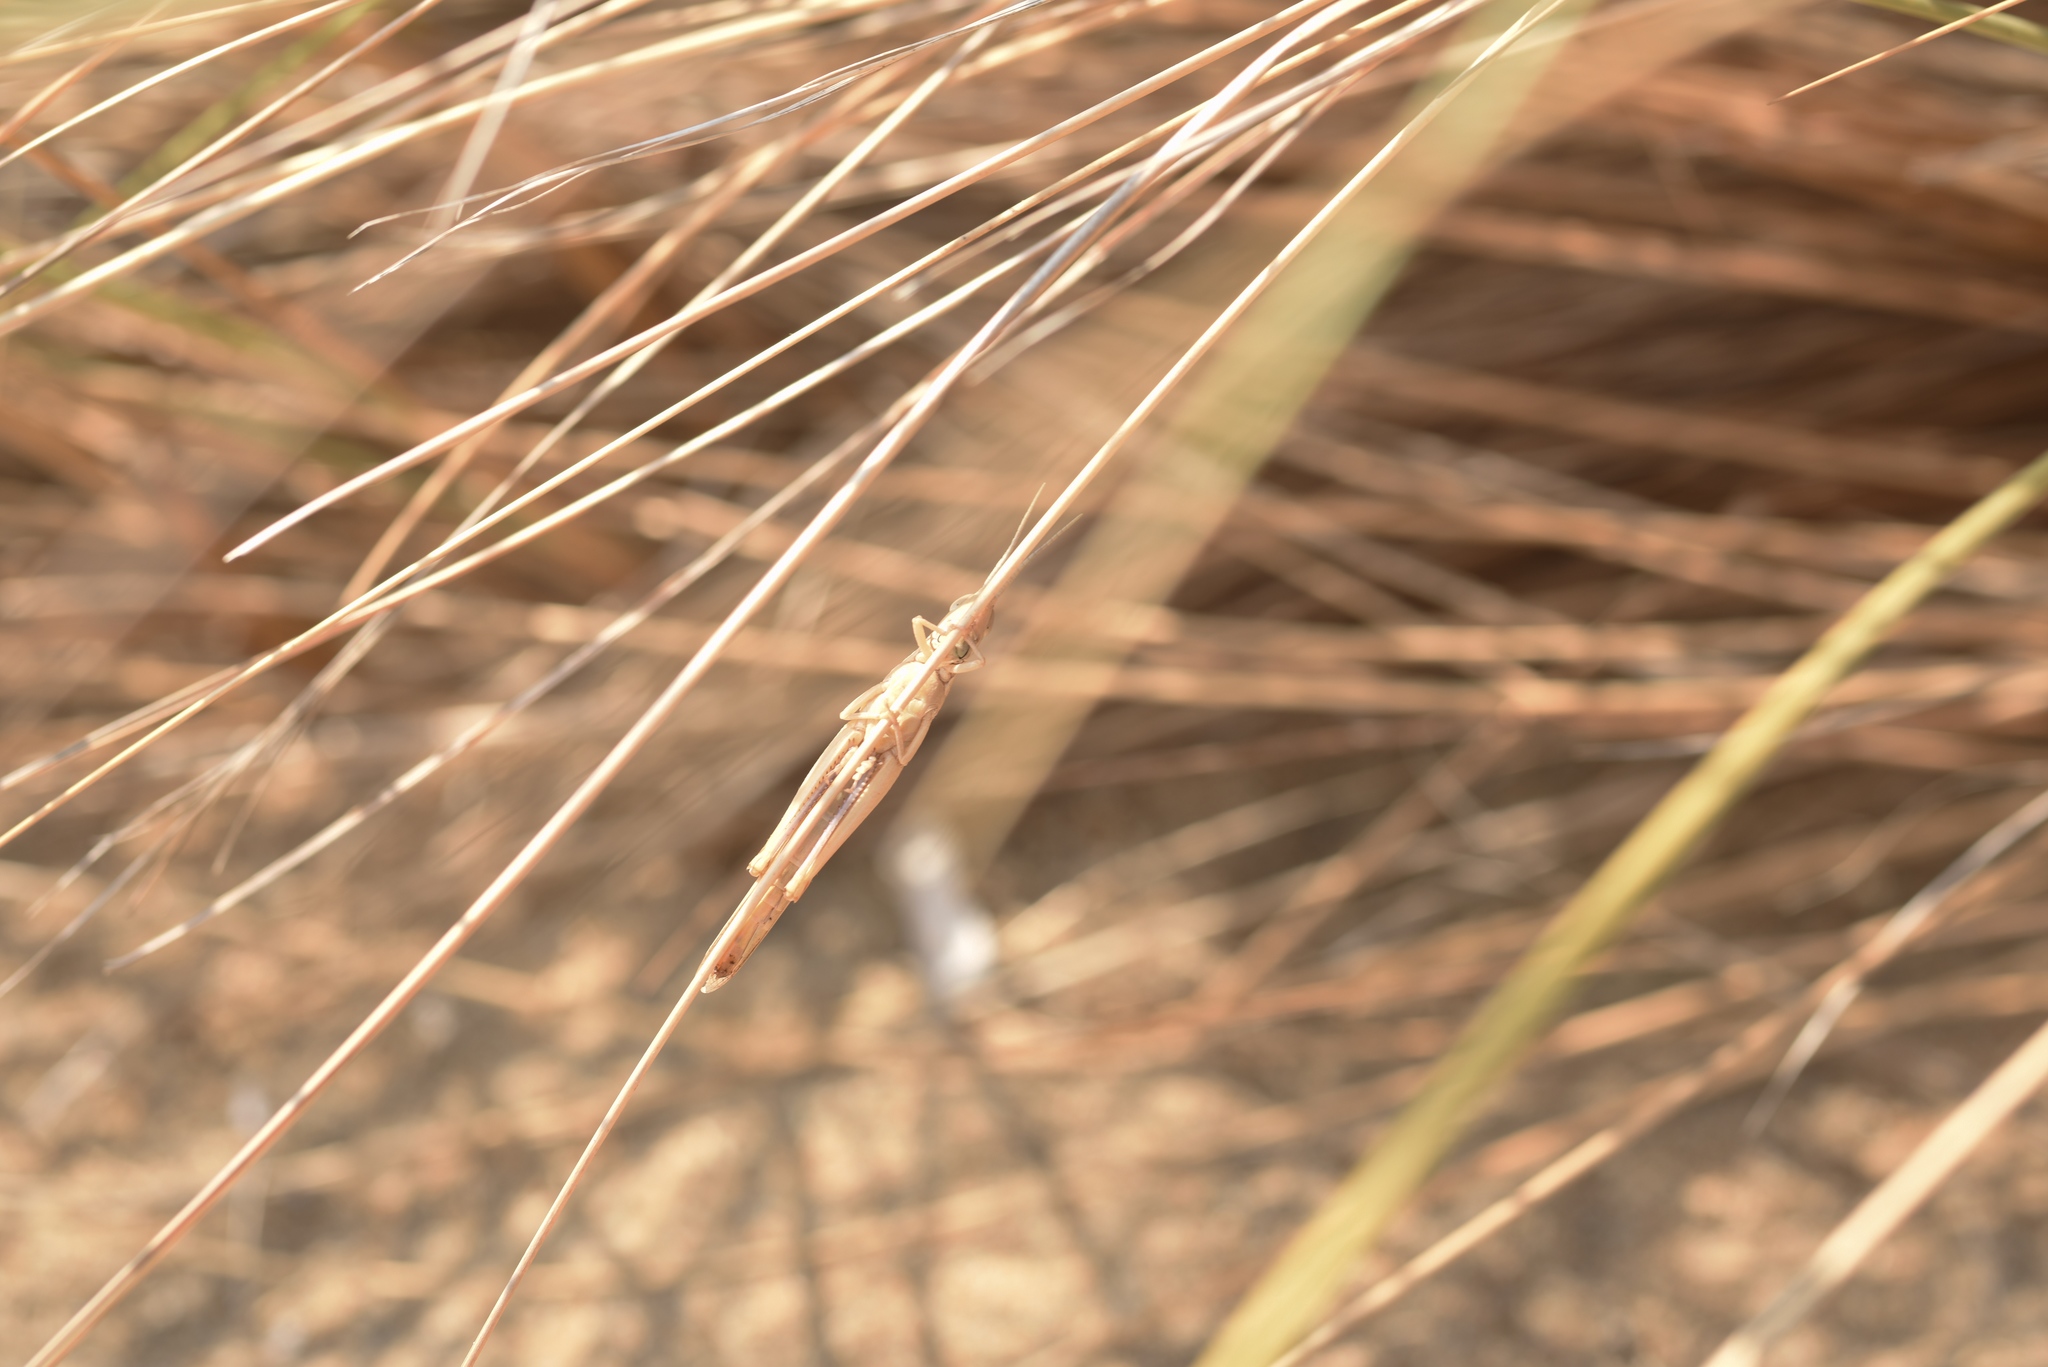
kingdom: Animalia
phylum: Arthropoda
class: Insecta
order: Orthoptera
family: Acrididae
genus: Ochrilidia
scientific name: Ochrilidia nuragica
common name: Sardinian cylindric grasshopper
